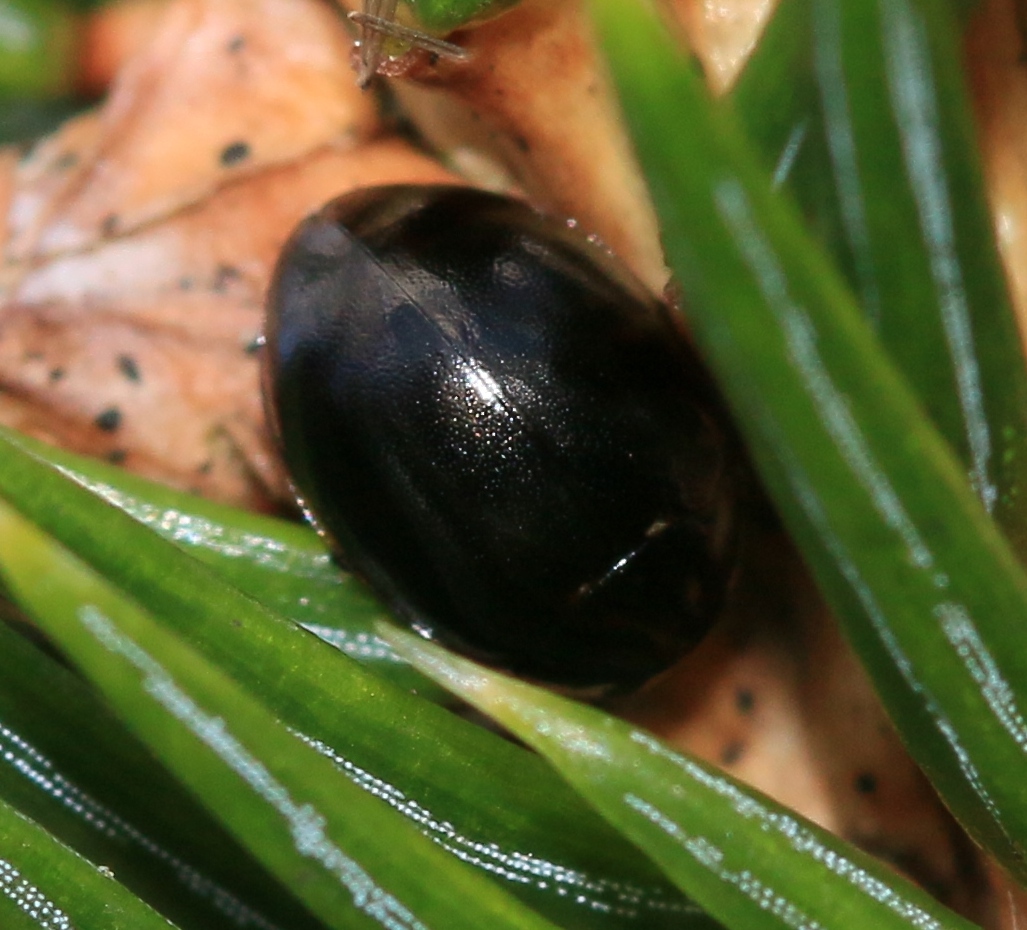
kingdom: Animalia
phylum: Arthropoda
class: Insecta
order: Coleoptera
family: Coccinellidae
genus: Coccinella
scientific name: Coccinella hieroglyphica
